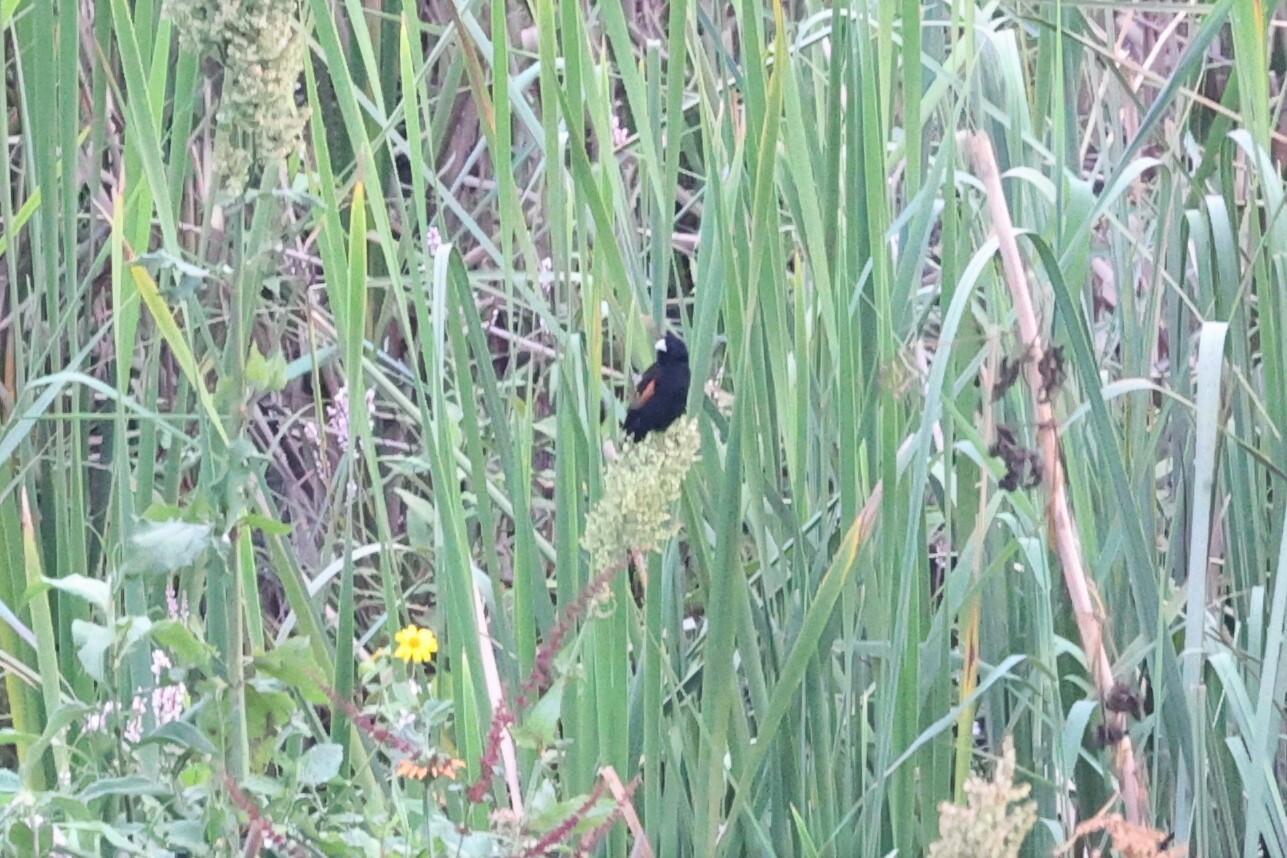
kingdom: Animalia
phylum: Chordata
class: Aves
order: Passeriformes
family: Ploceidae
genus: Euplectes
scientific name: Euplectes axillaris
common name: Fan-tailed widowbird
